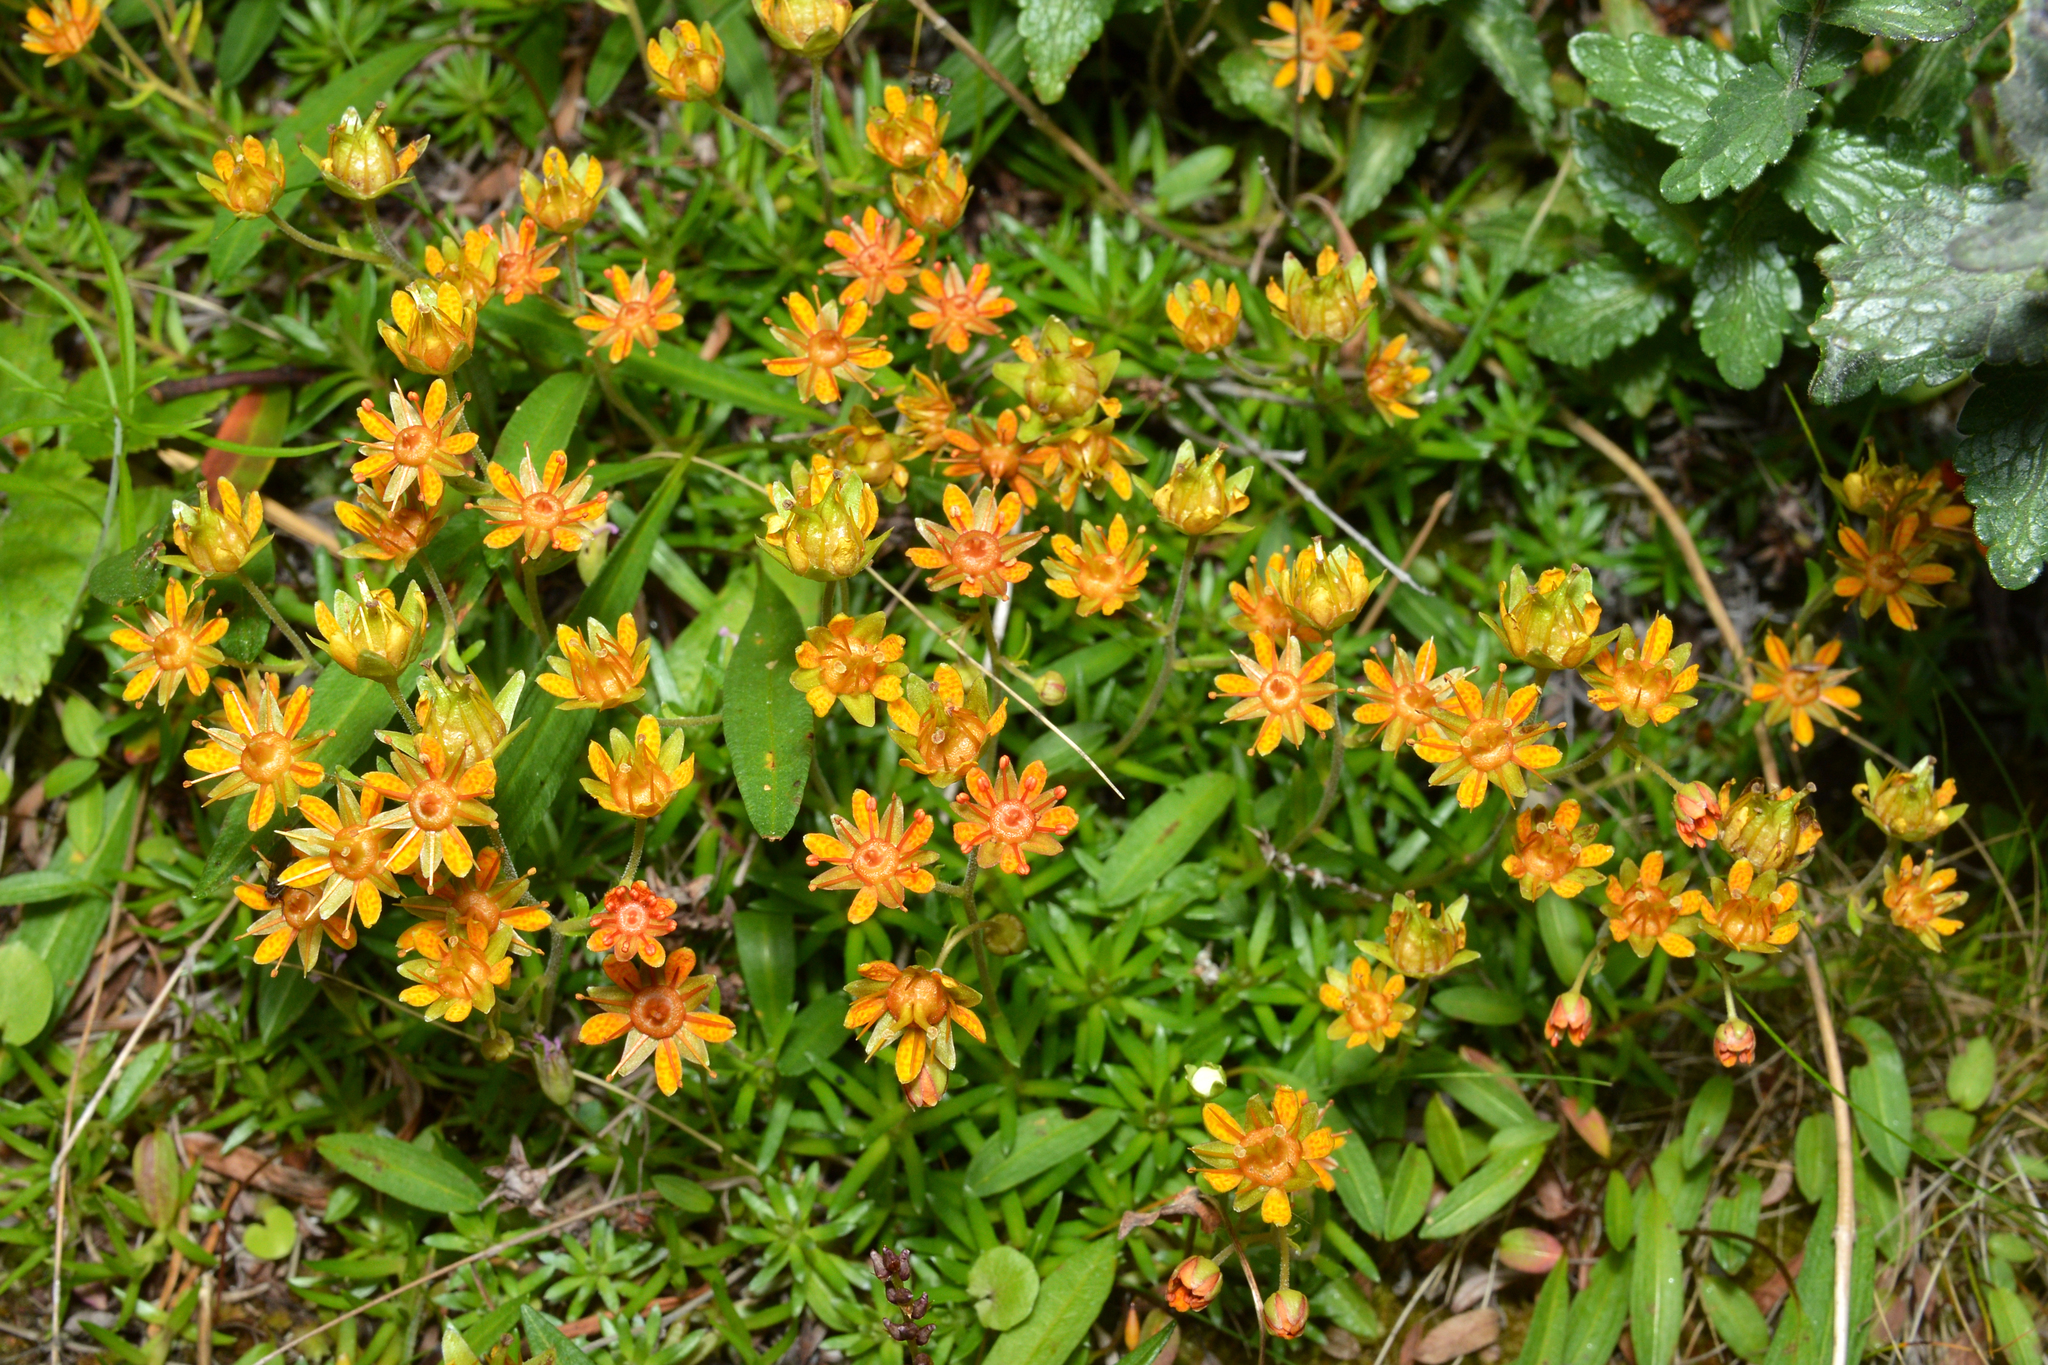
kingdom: Plantae
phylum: Tracheophyta
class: Magnoliopsida
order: Saxifragales
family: Saxifragaceae
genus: Saxifraga
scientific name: Saxifraga aizoides
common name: Yellow mountain saxifrage
